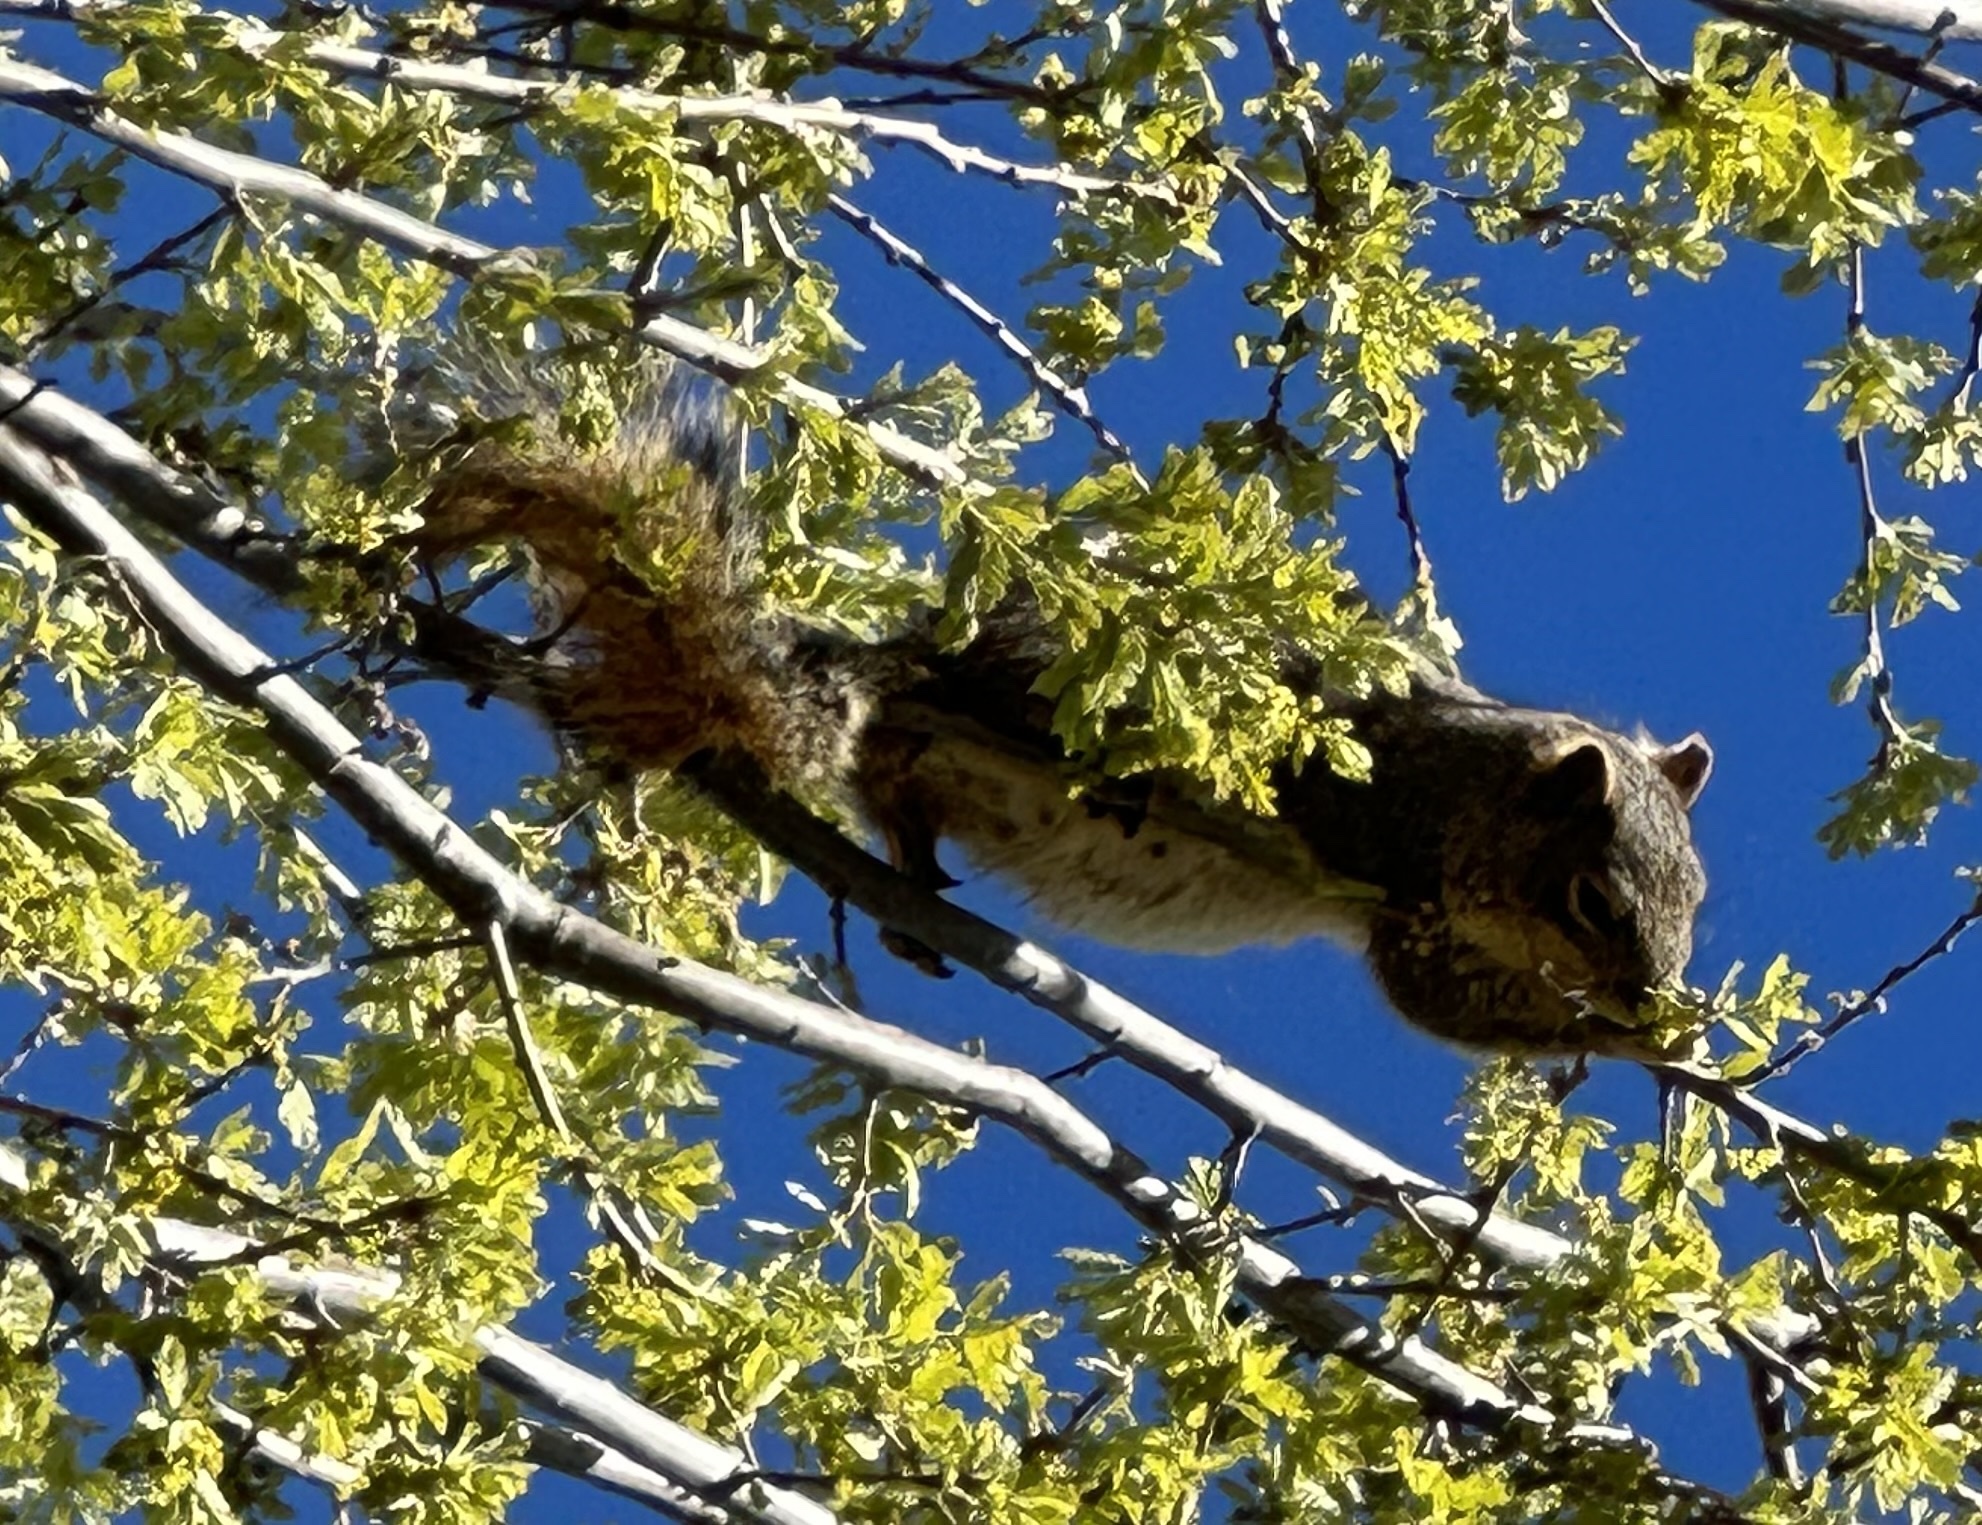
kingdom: Animalia
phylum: Chordata
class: Mammalia
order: Rodentia
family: Sciuridae
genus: Sciurus
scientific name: Sciurus niger
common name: Fox squirrel
